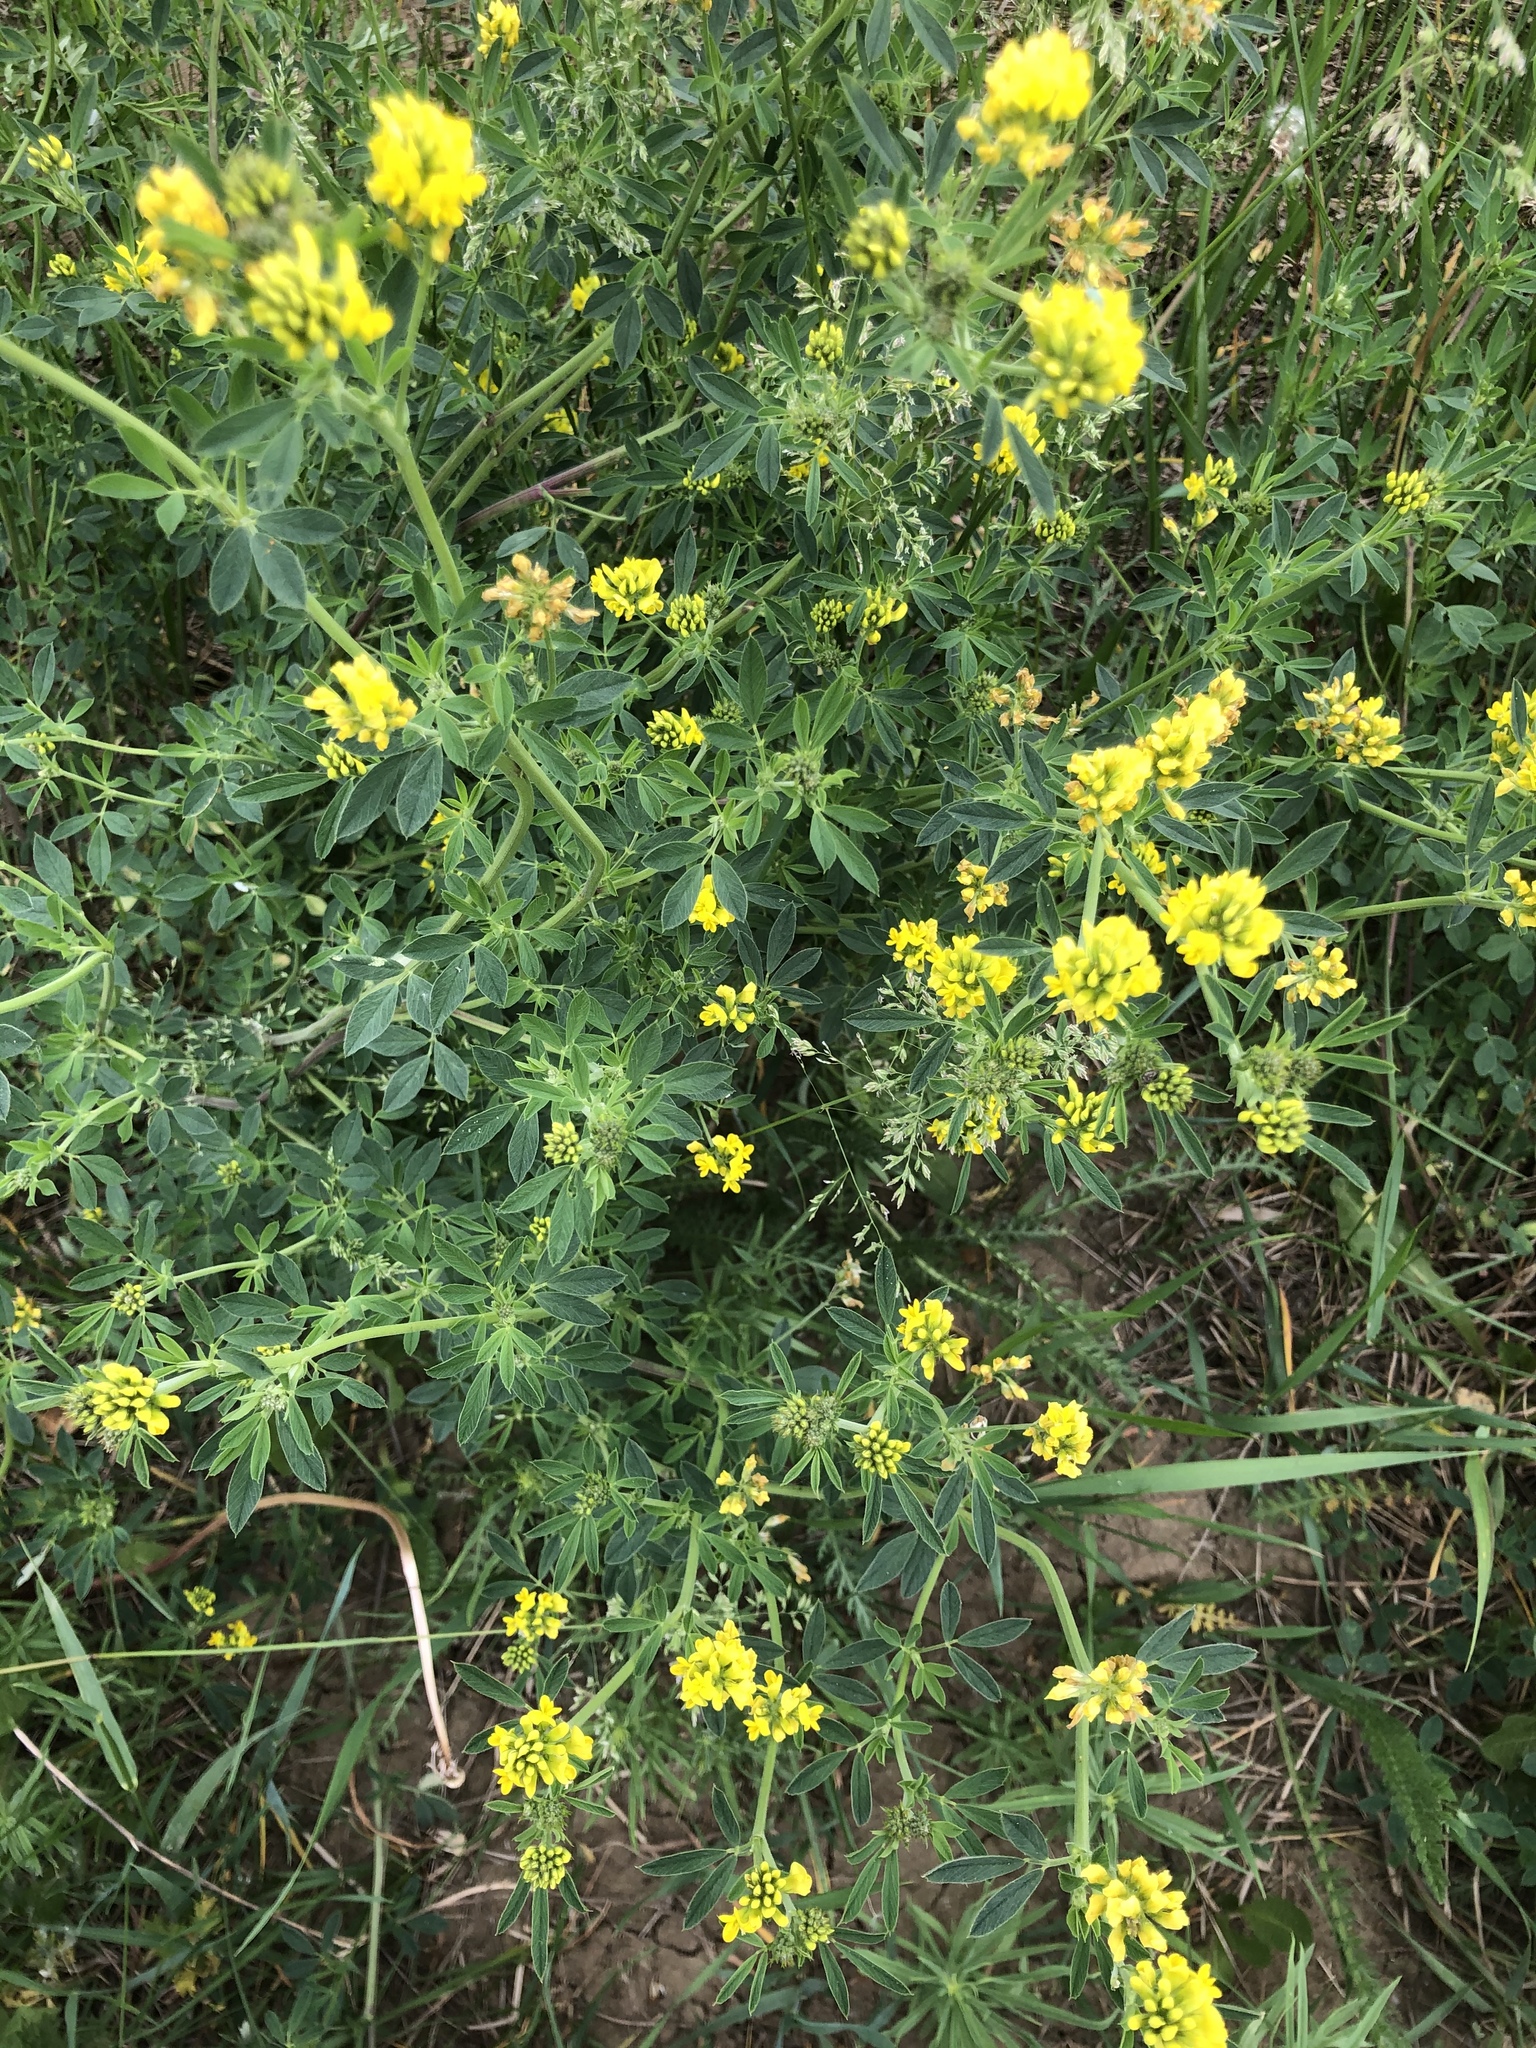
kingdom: Plantae
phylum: Tracheophyta
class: Magnoliopsida
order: Fabales
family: Fabaceae
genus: Medicago
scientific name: Medicago falcata
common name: Sickle medick
